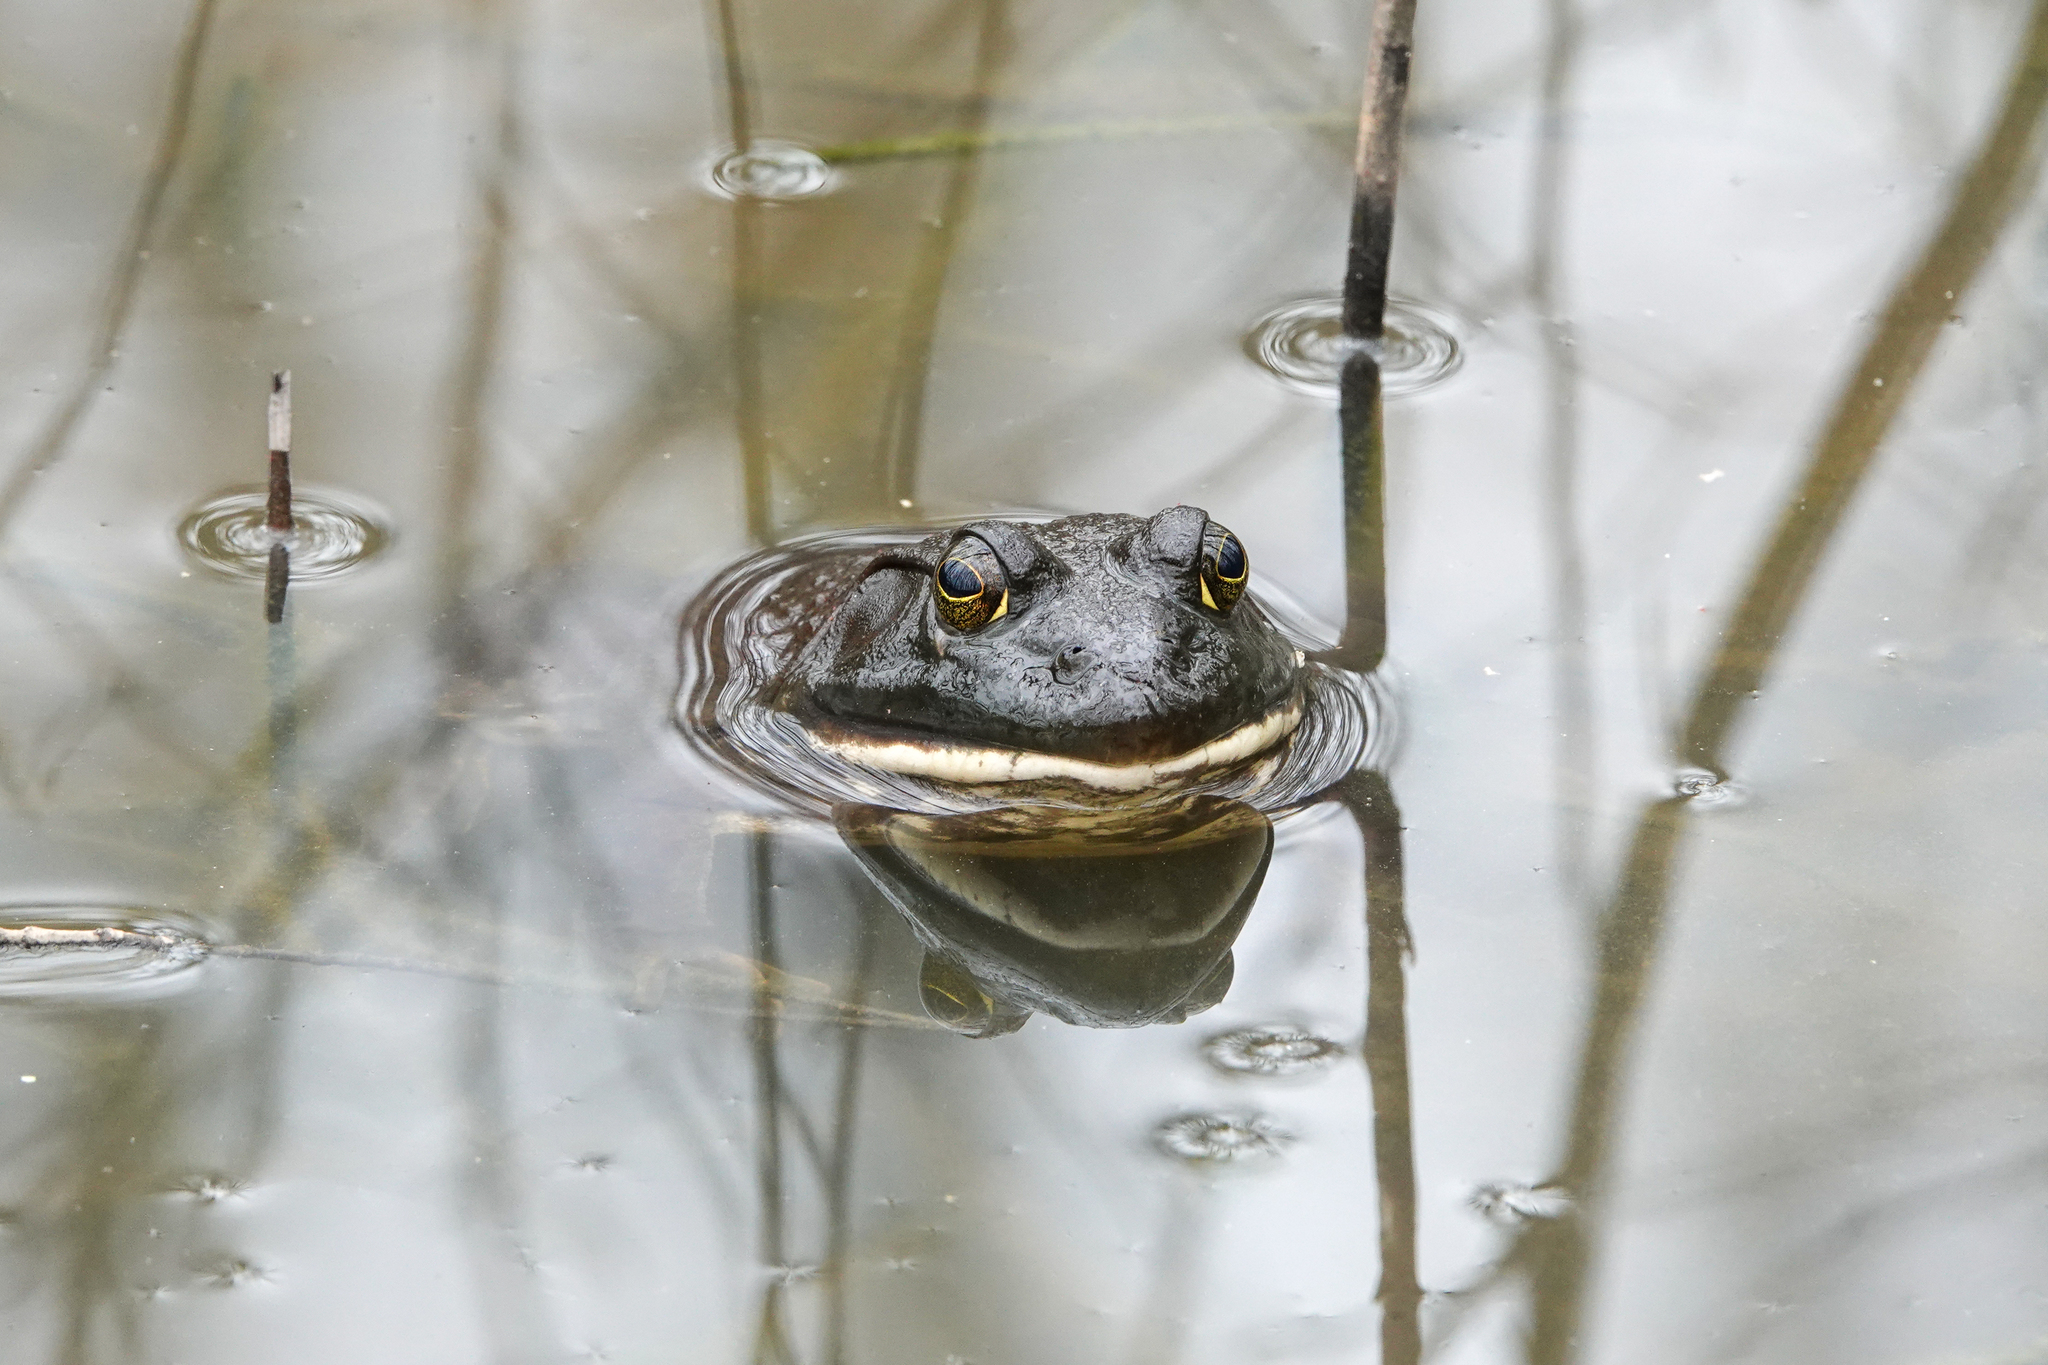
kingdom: Animalia
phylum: Chordata
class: Amphibia
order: Anura
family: Ranidae
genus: Lithobates
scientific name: Lithobates catesbeianus
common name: American bullfrog
